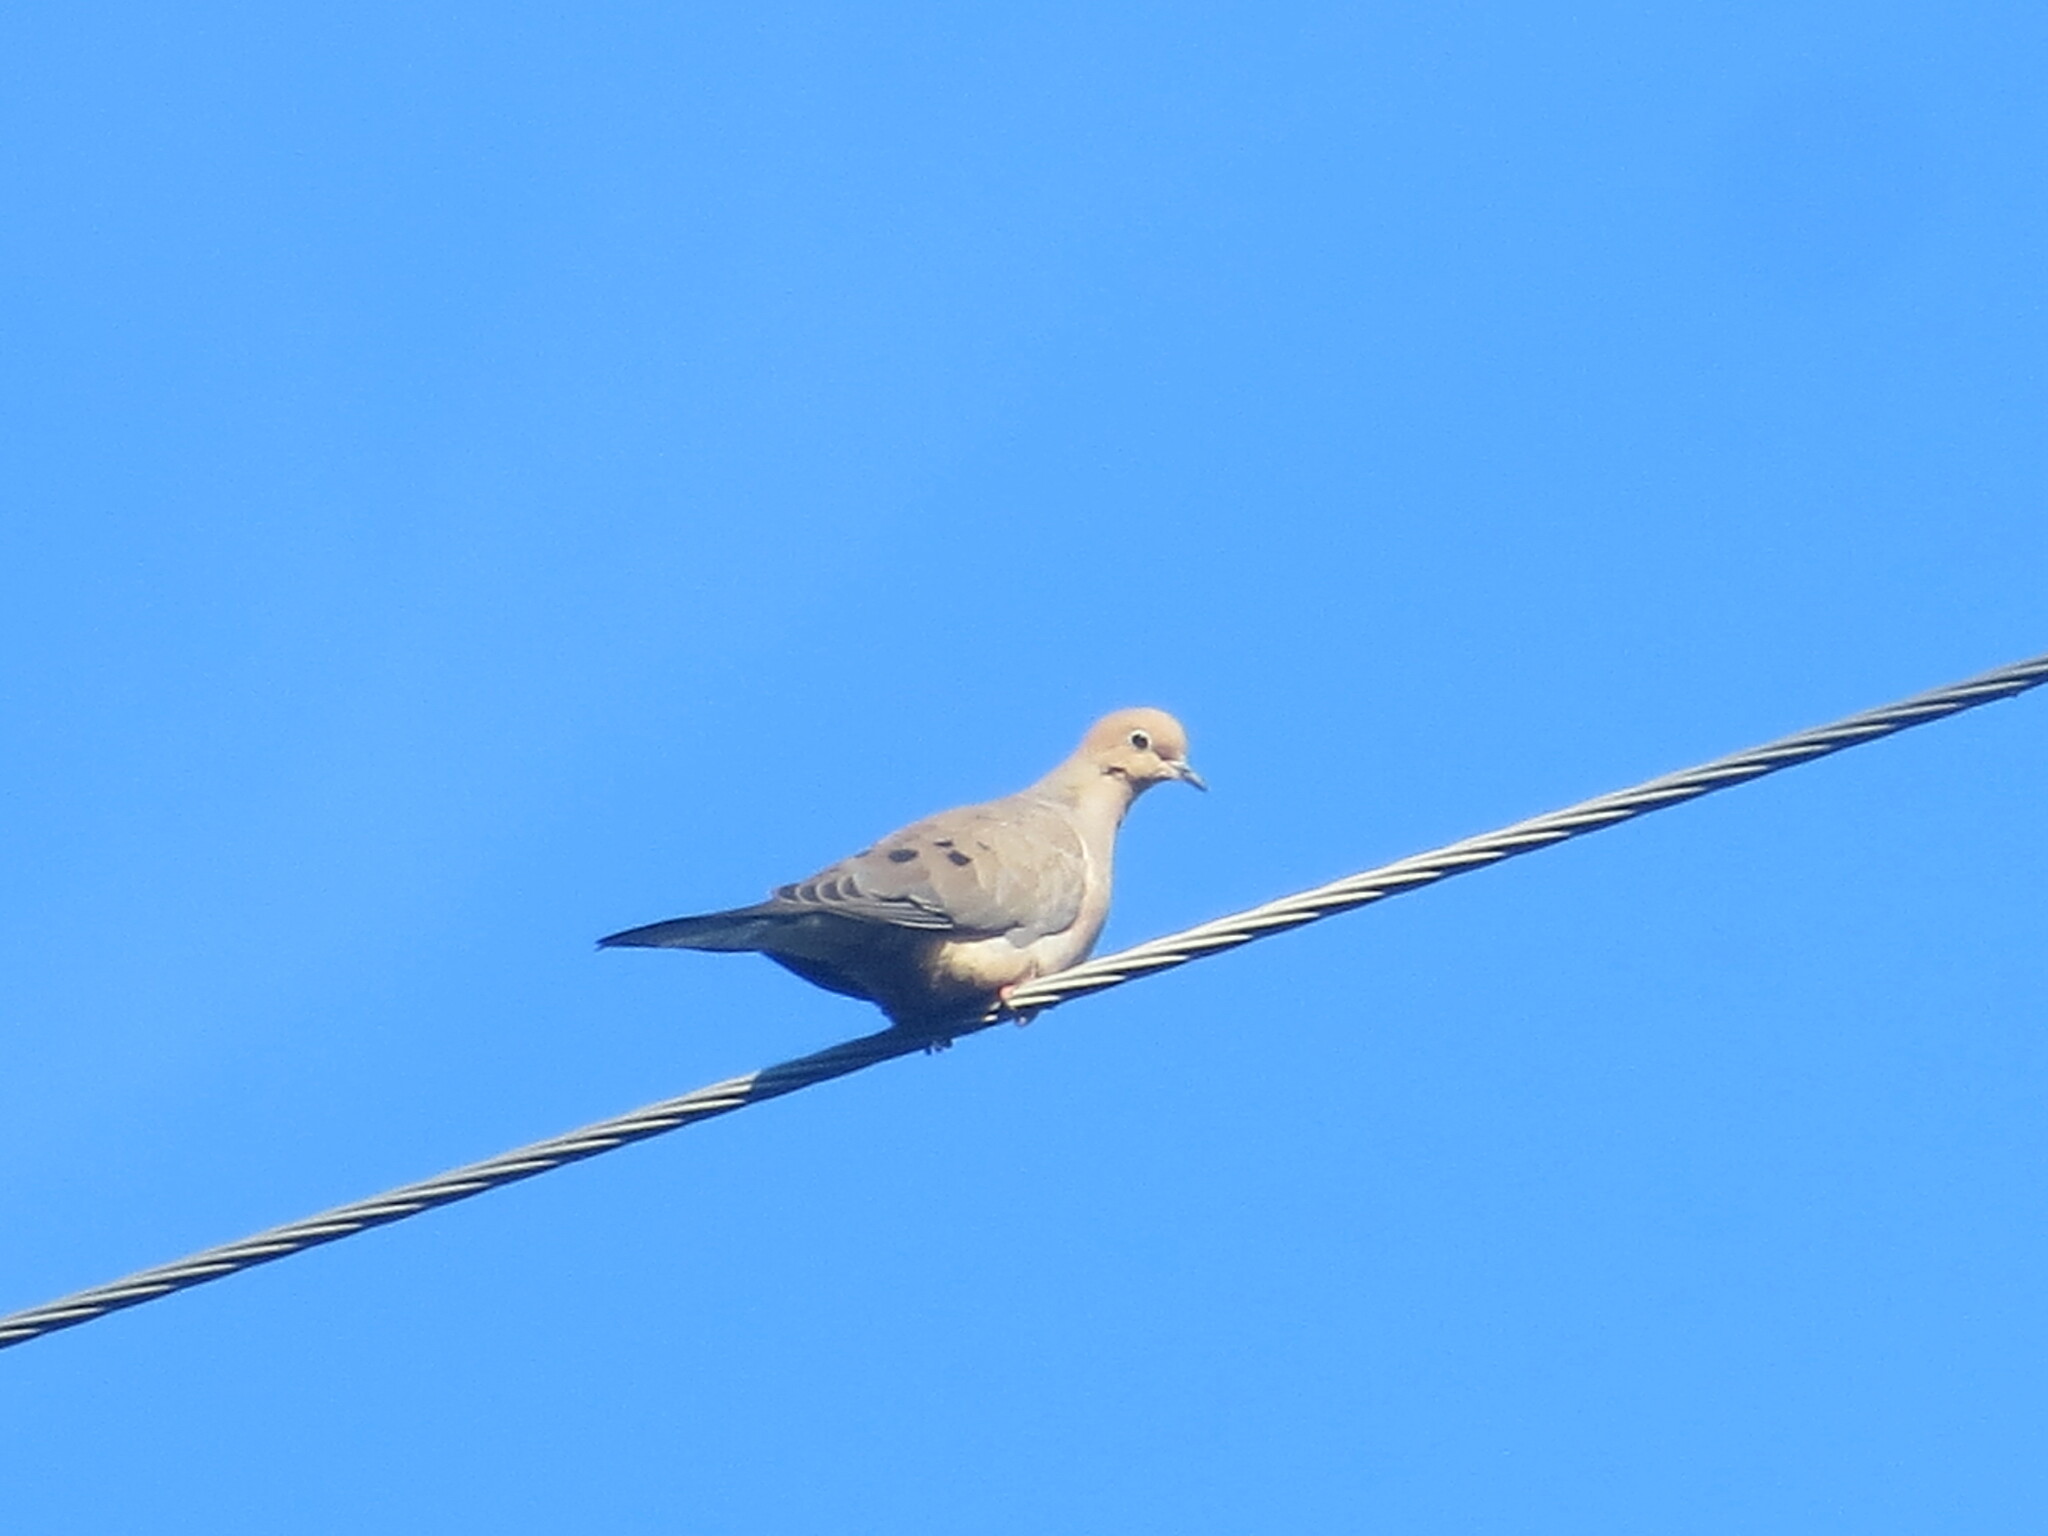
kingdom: Animalia
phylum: Chordata
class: Aves
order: Columbiformes
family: Columbidae
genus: Zenaida
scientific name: Zenaida macroura
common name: Mourning dove
